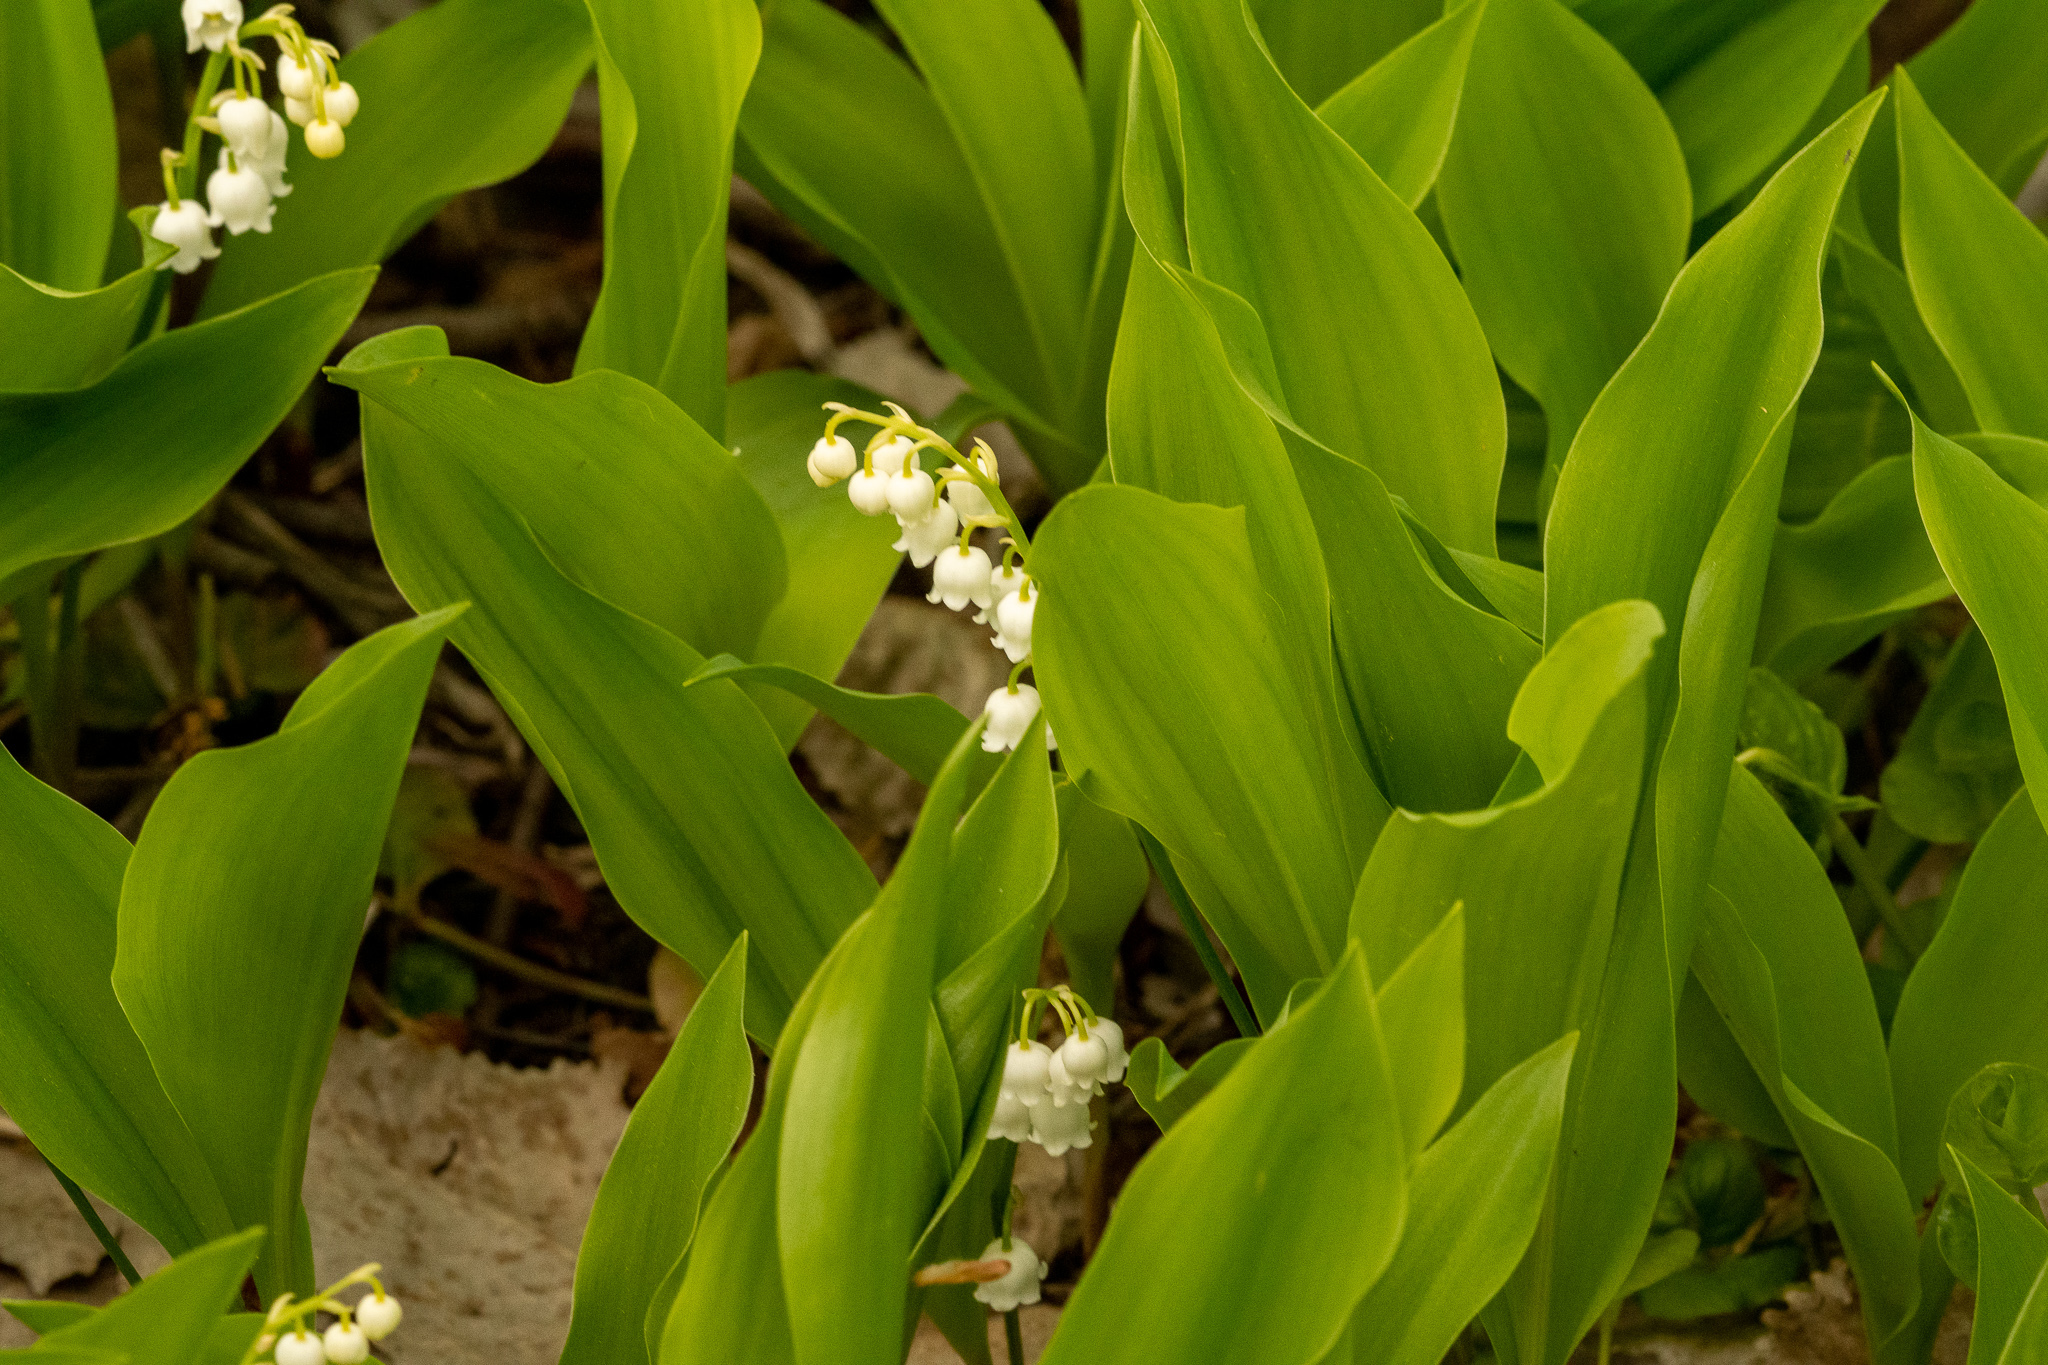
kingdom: Plantae
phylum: Tracheophyta
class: Liliopsida
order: Asparagales
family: Asparagaceae
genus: Convallaria
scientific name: Convallaria majalis
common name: Lily-of-the-valley
